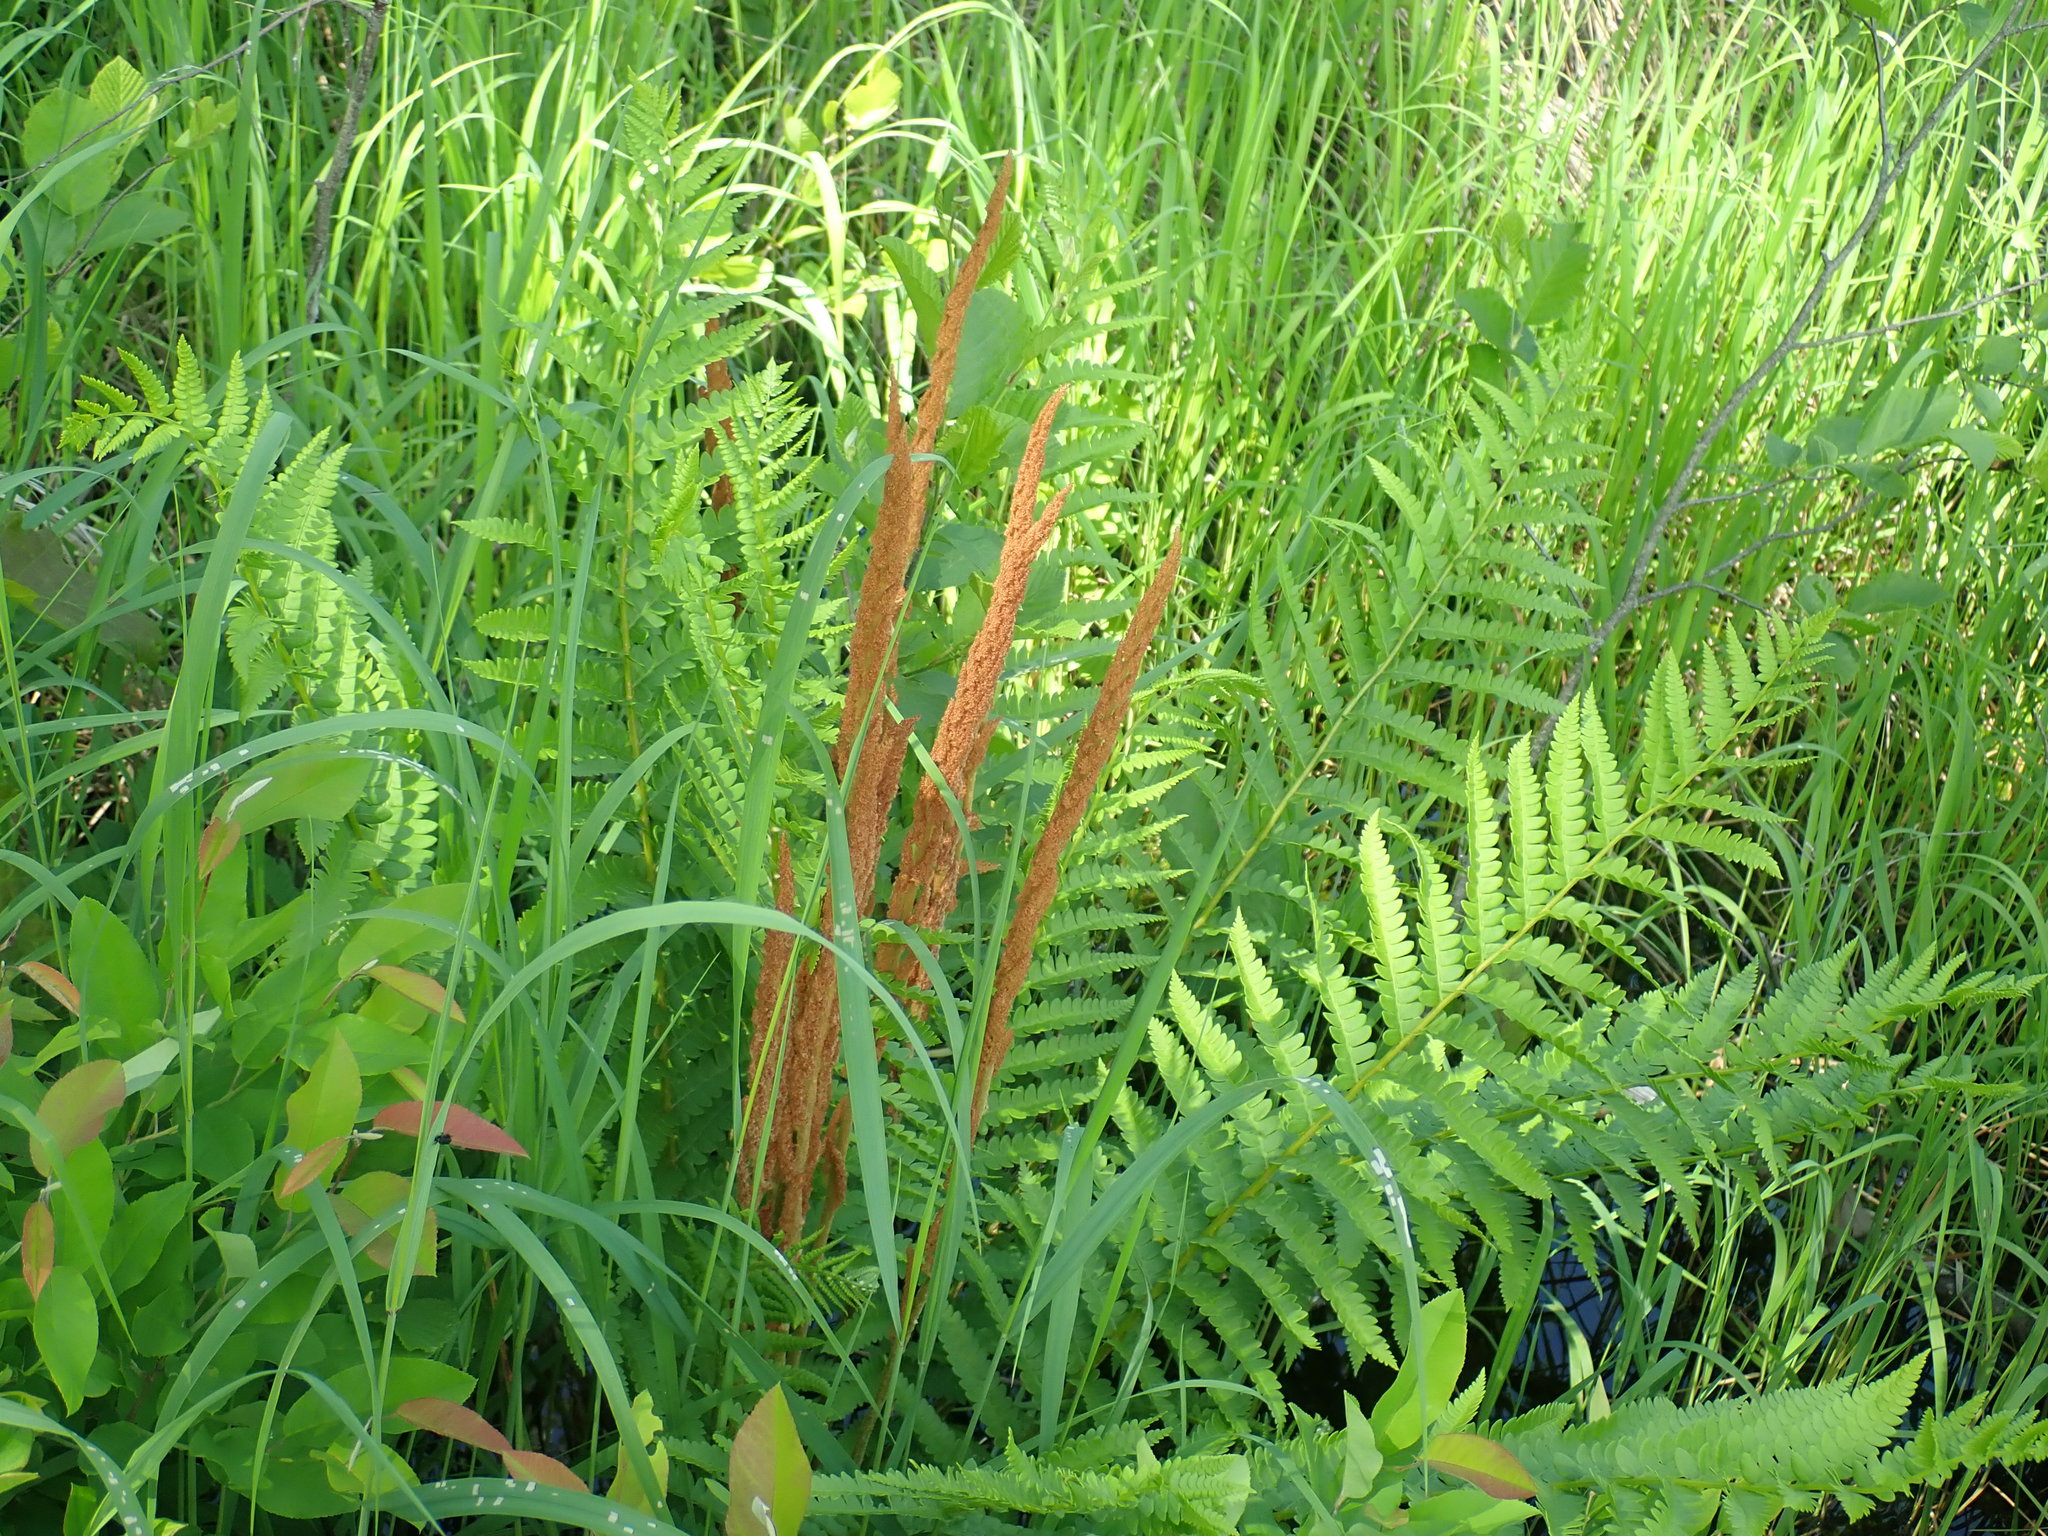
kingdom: Plantae
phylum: Tracheophyta
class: Polypodiopsida
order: Osmundales
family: Osmundaceae
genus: Osmundastrum
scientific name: Osmundastrum cinnamomeum
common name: Cinnamon fern
